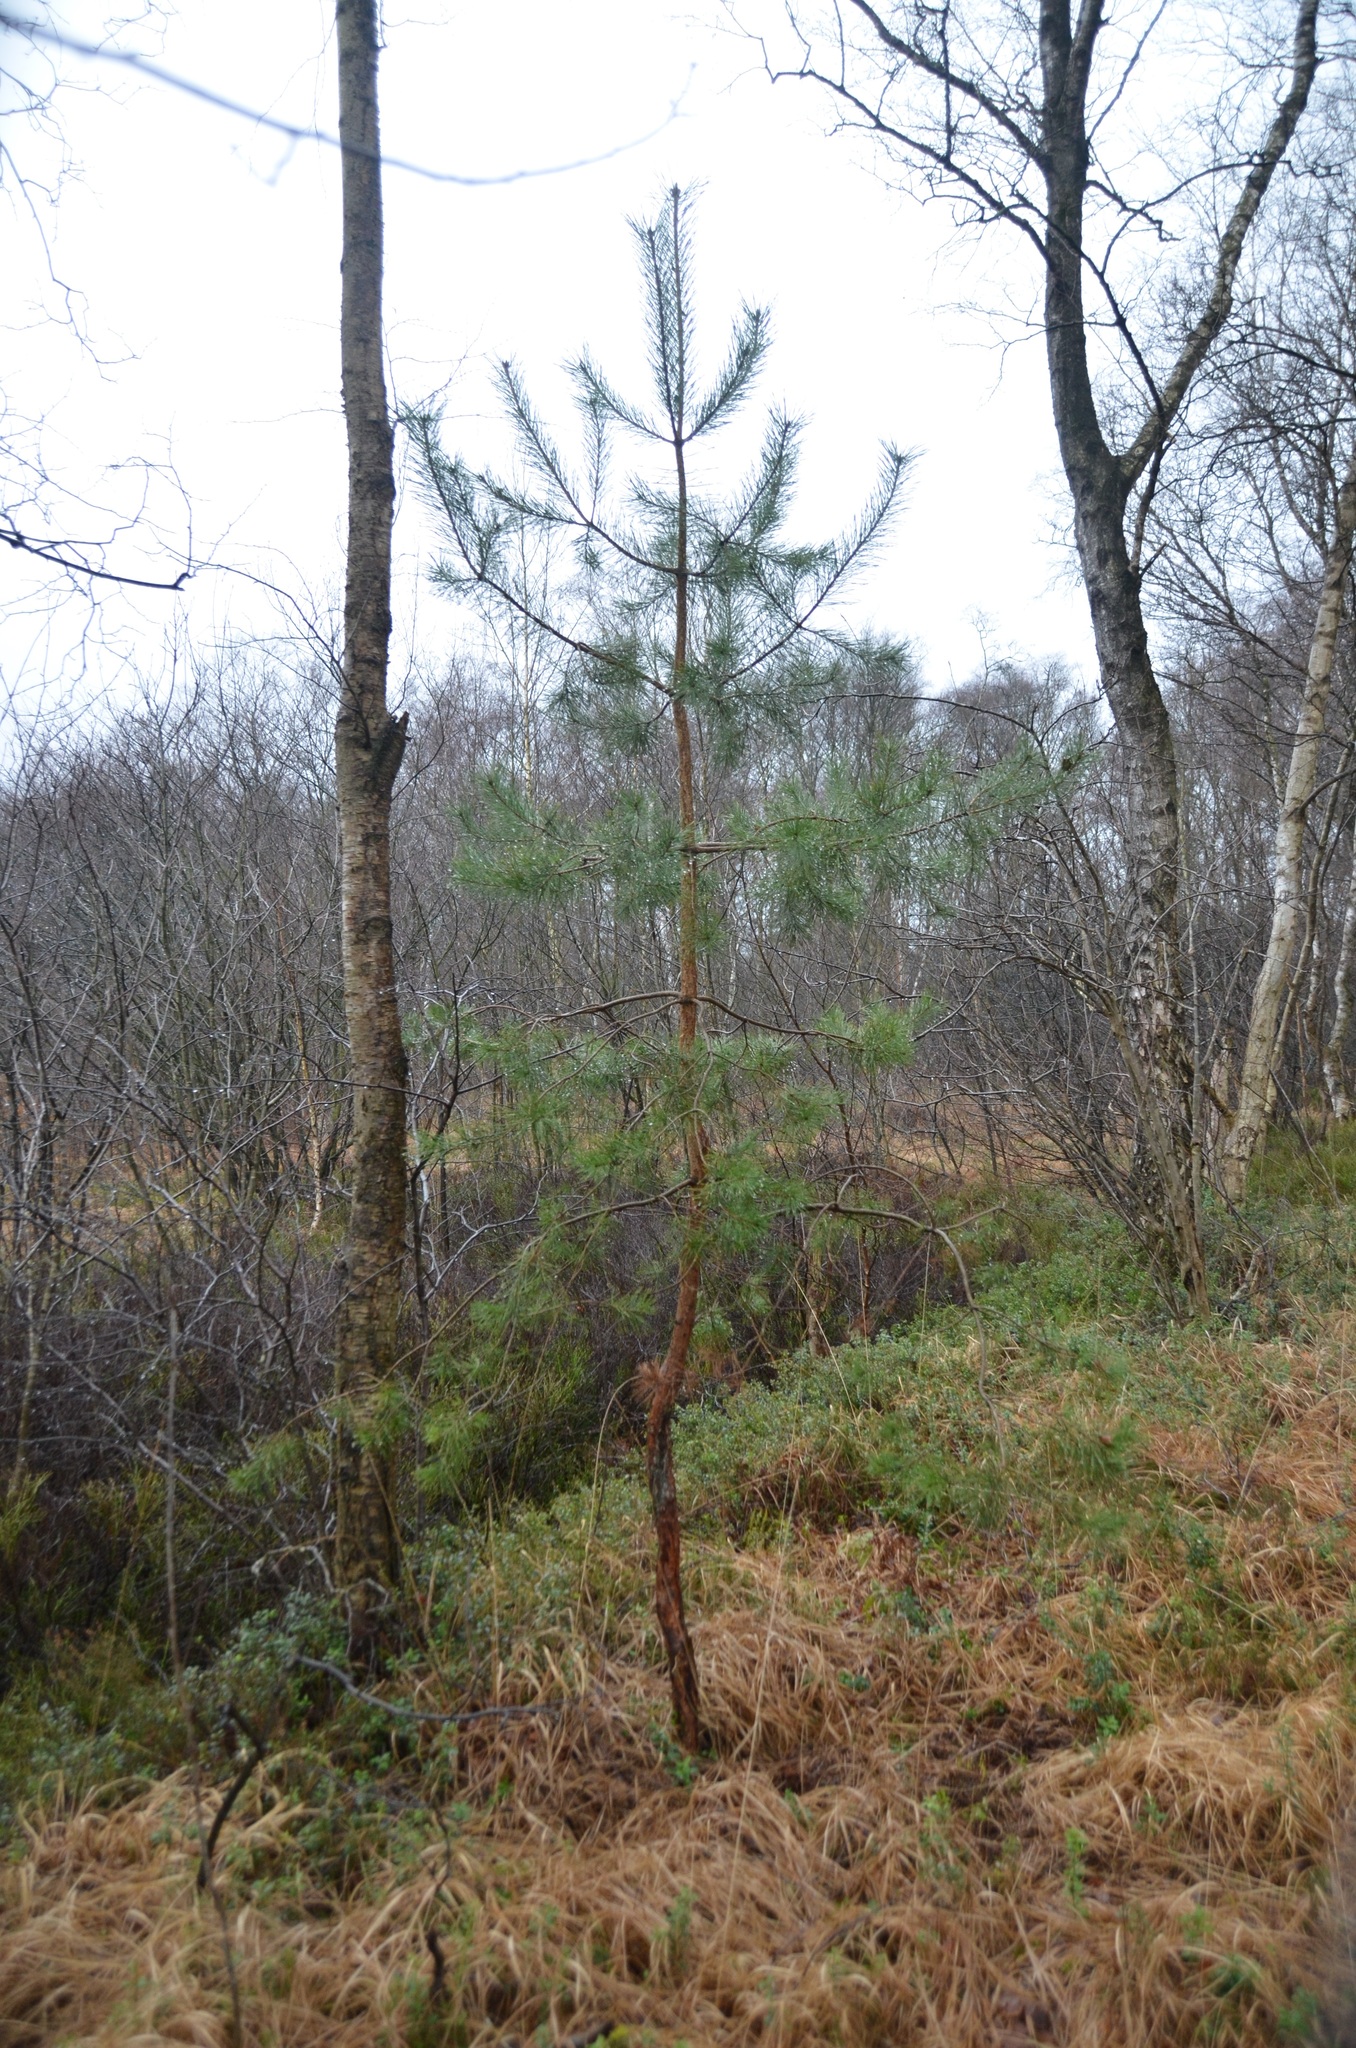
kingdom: Plantae
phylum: Tracheophyta
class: Pinopsida
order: Pinales
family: Pinaceae
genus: Pinus
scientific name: Pinus sylvestris
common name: Scots pine
